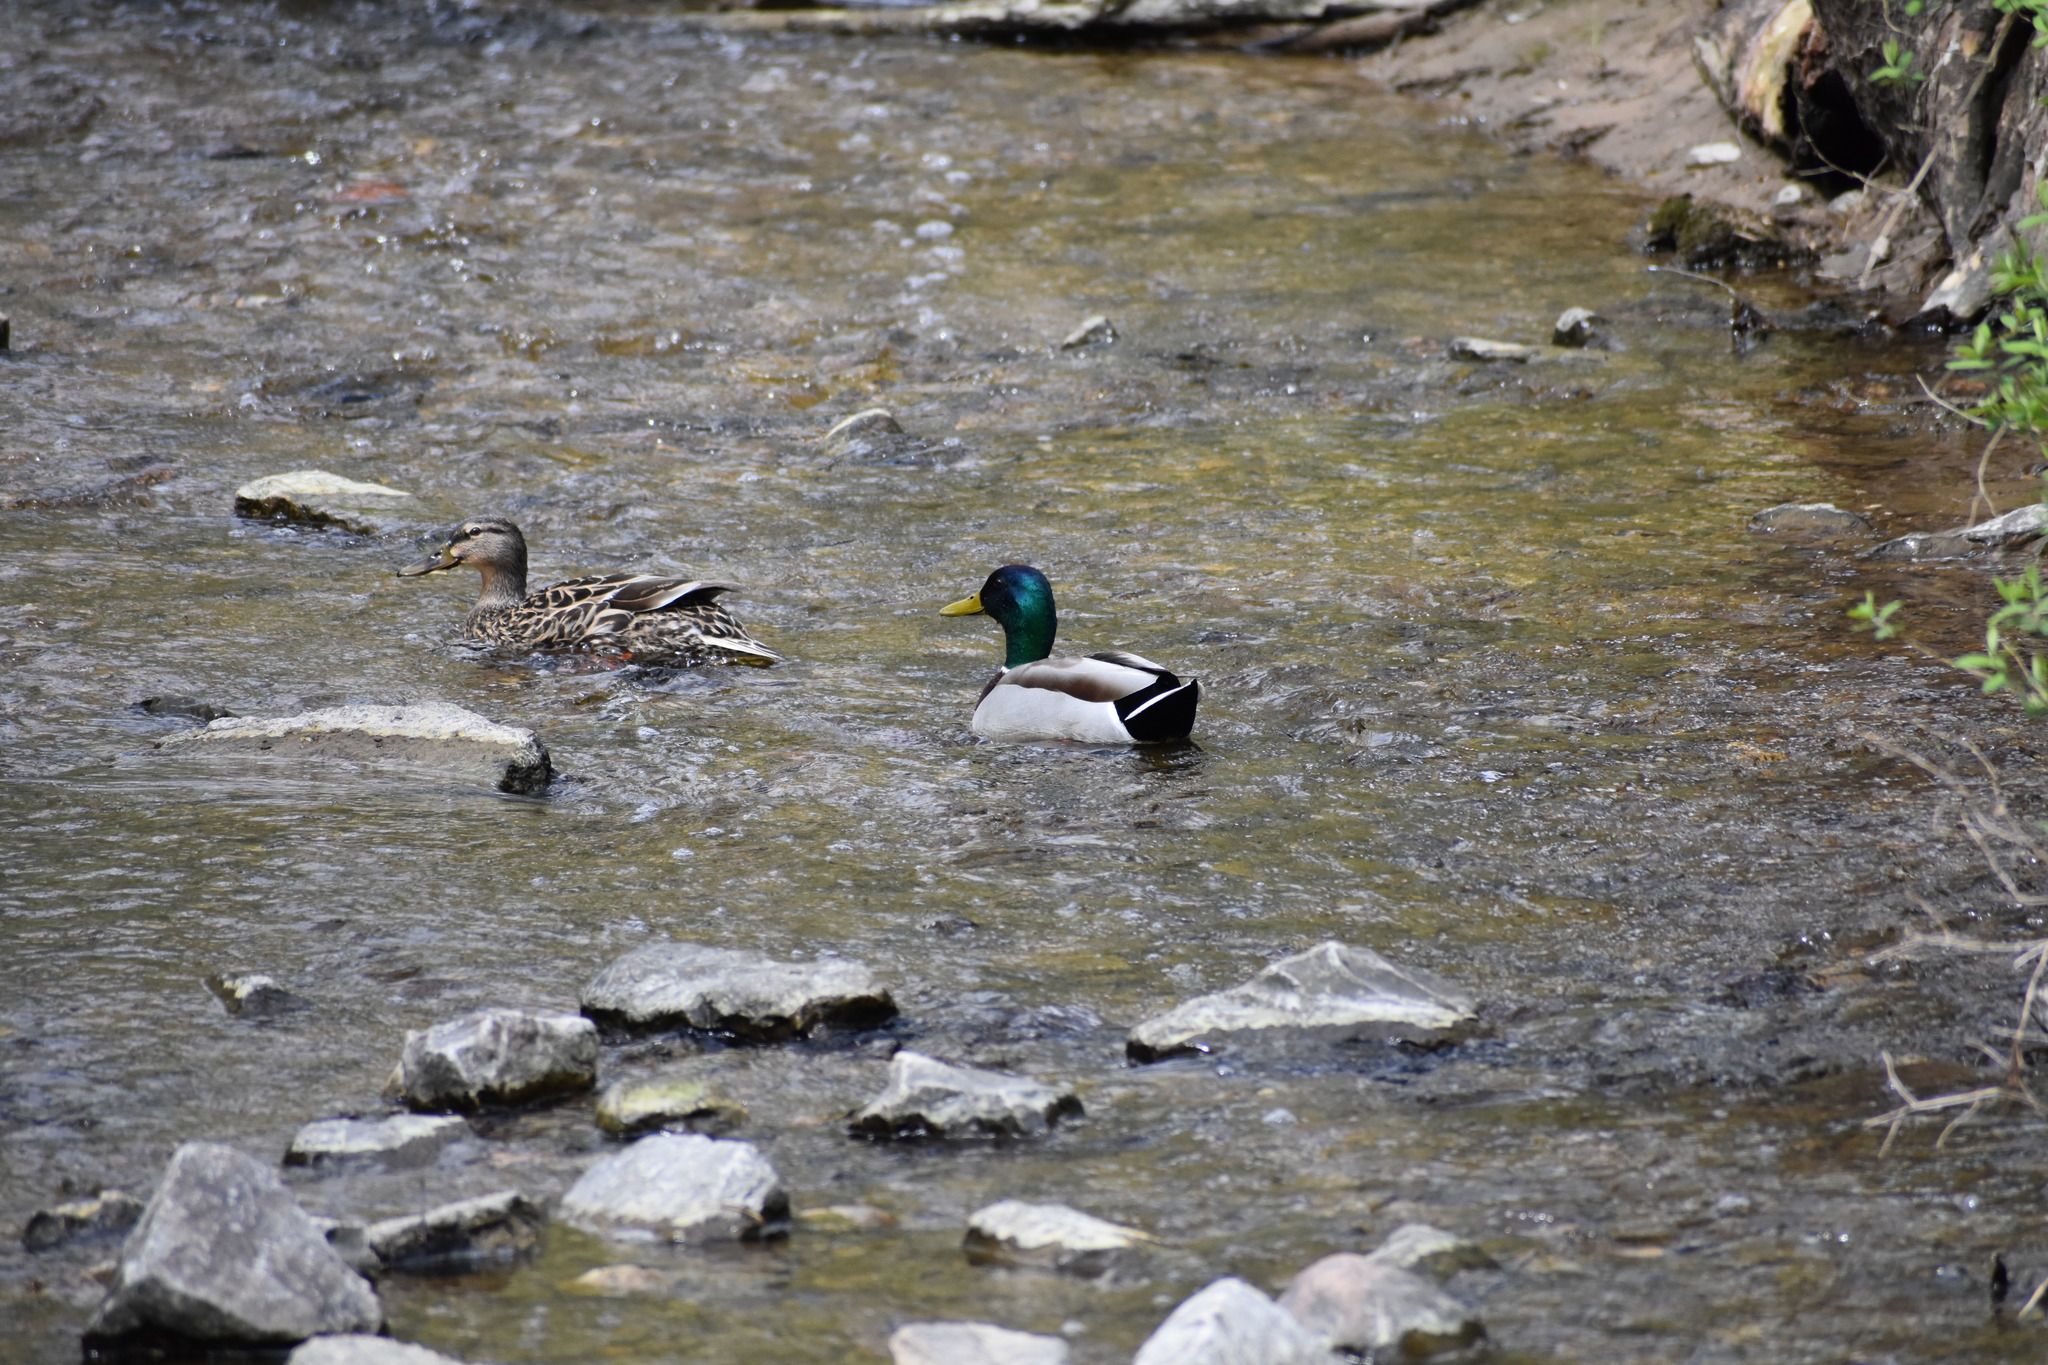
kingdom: Animalia
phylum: Chordata
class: Aves
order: Anseriformes
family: Anatidae
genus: Anas
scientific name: Anas platyrhynchos
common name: Mallard
